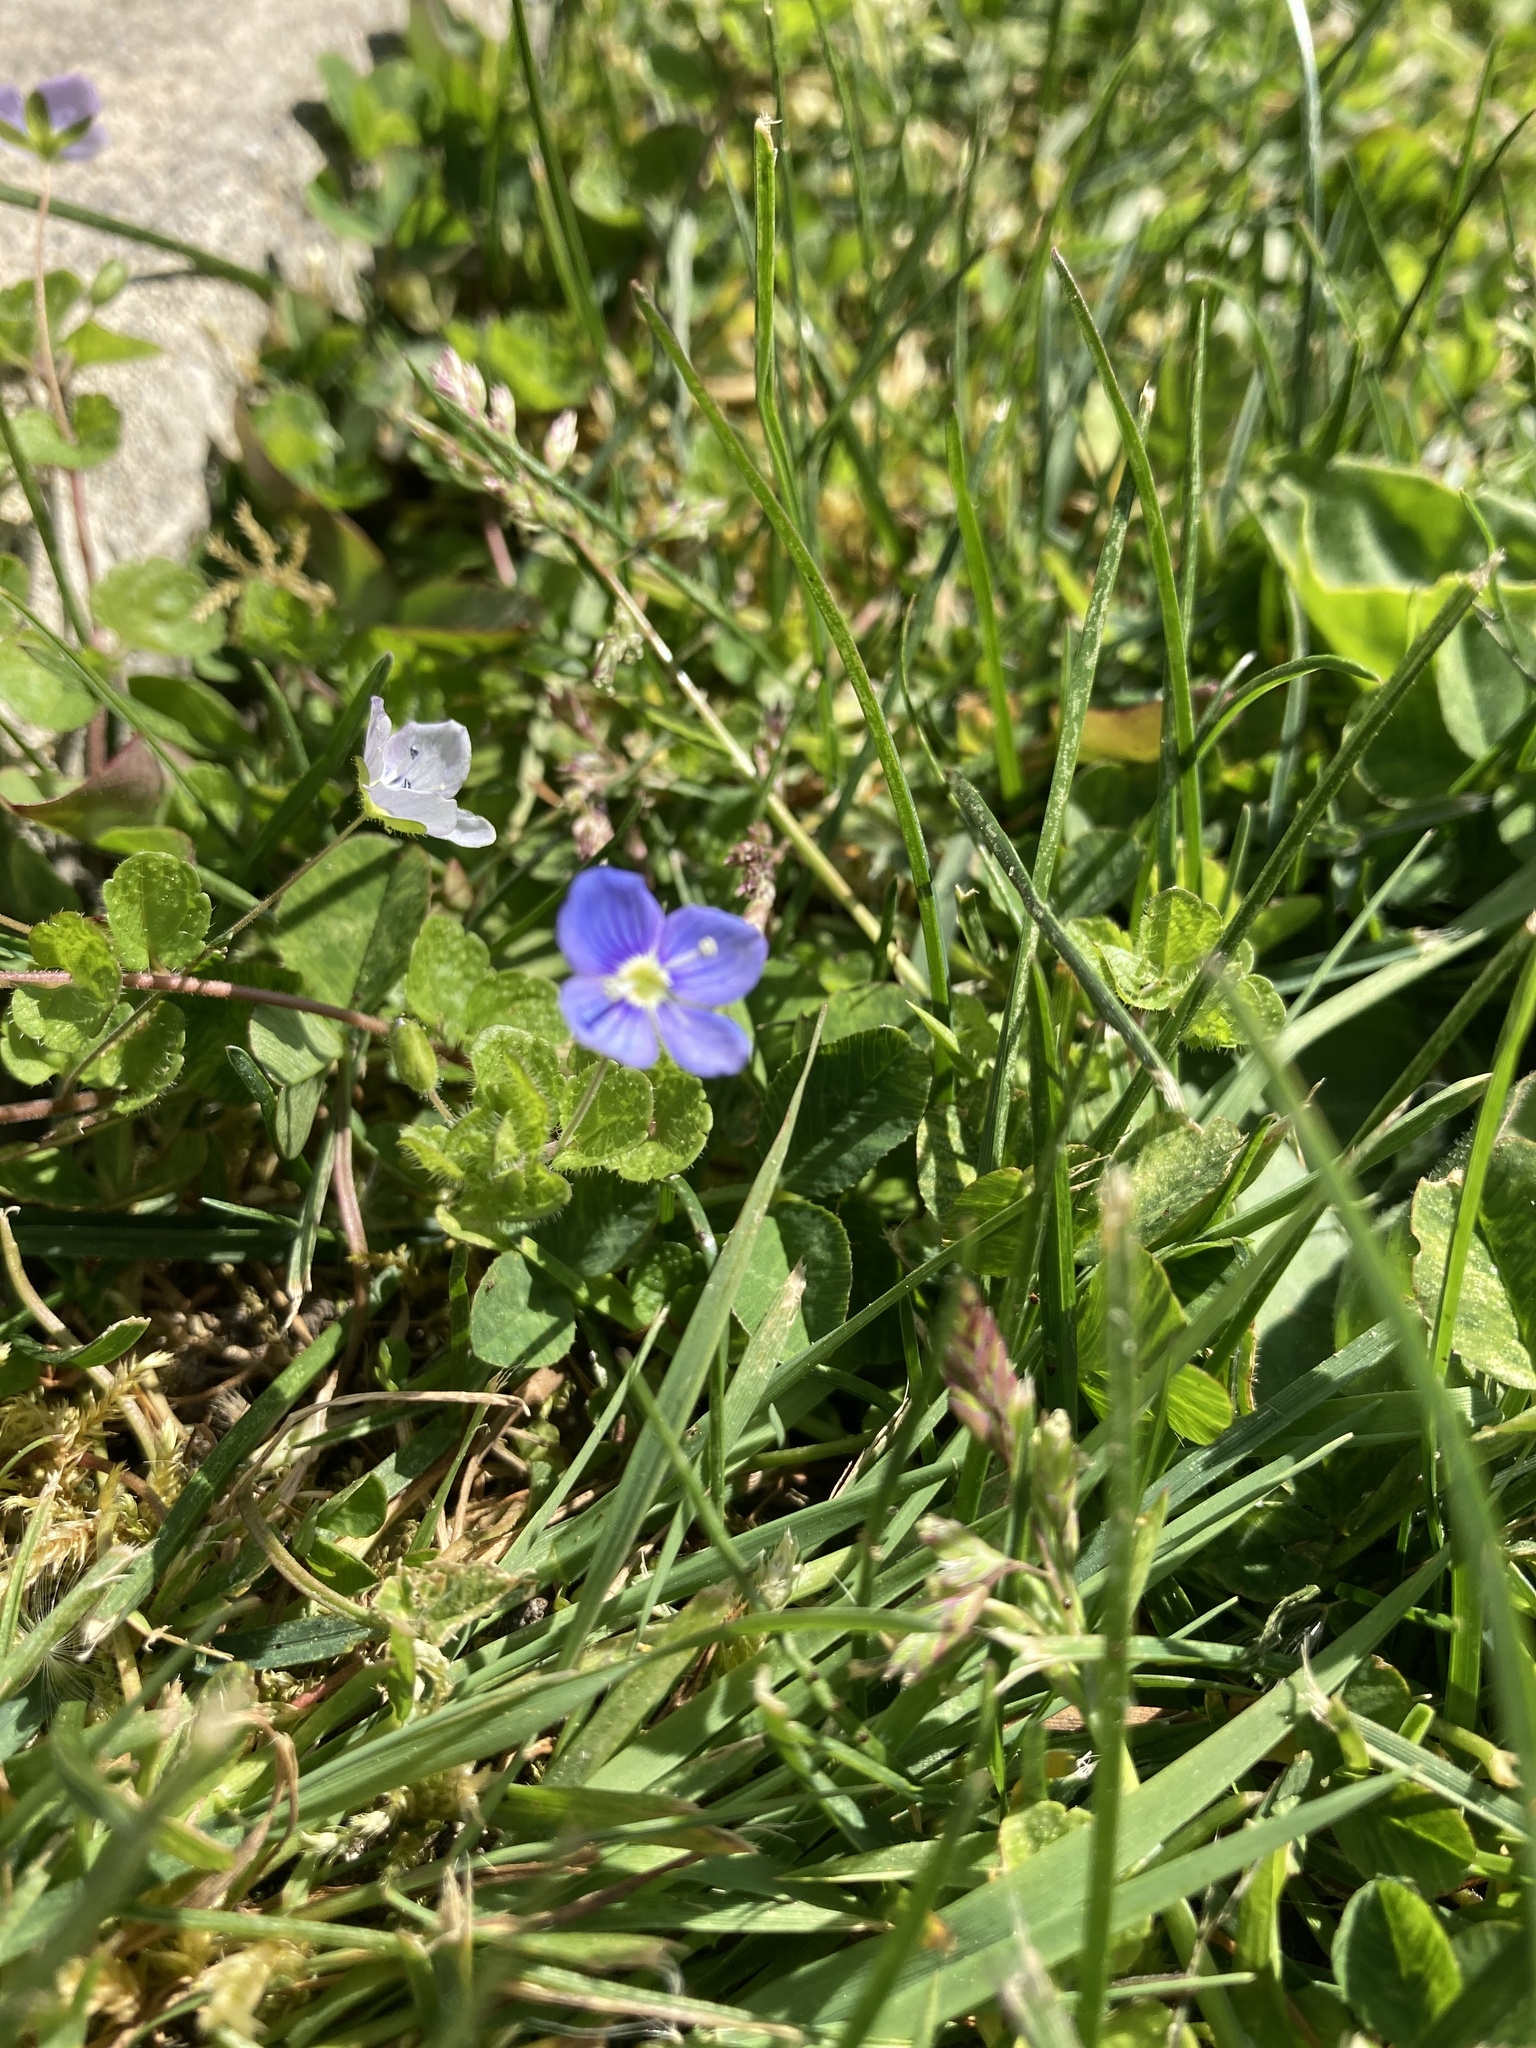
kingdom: Plantae
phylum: Tracheophyta
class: Magnoliopsida
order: Lamiales
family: Plantaginaceae
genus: Veronica
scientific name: Veronica filiformis
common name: Slender speedwell
